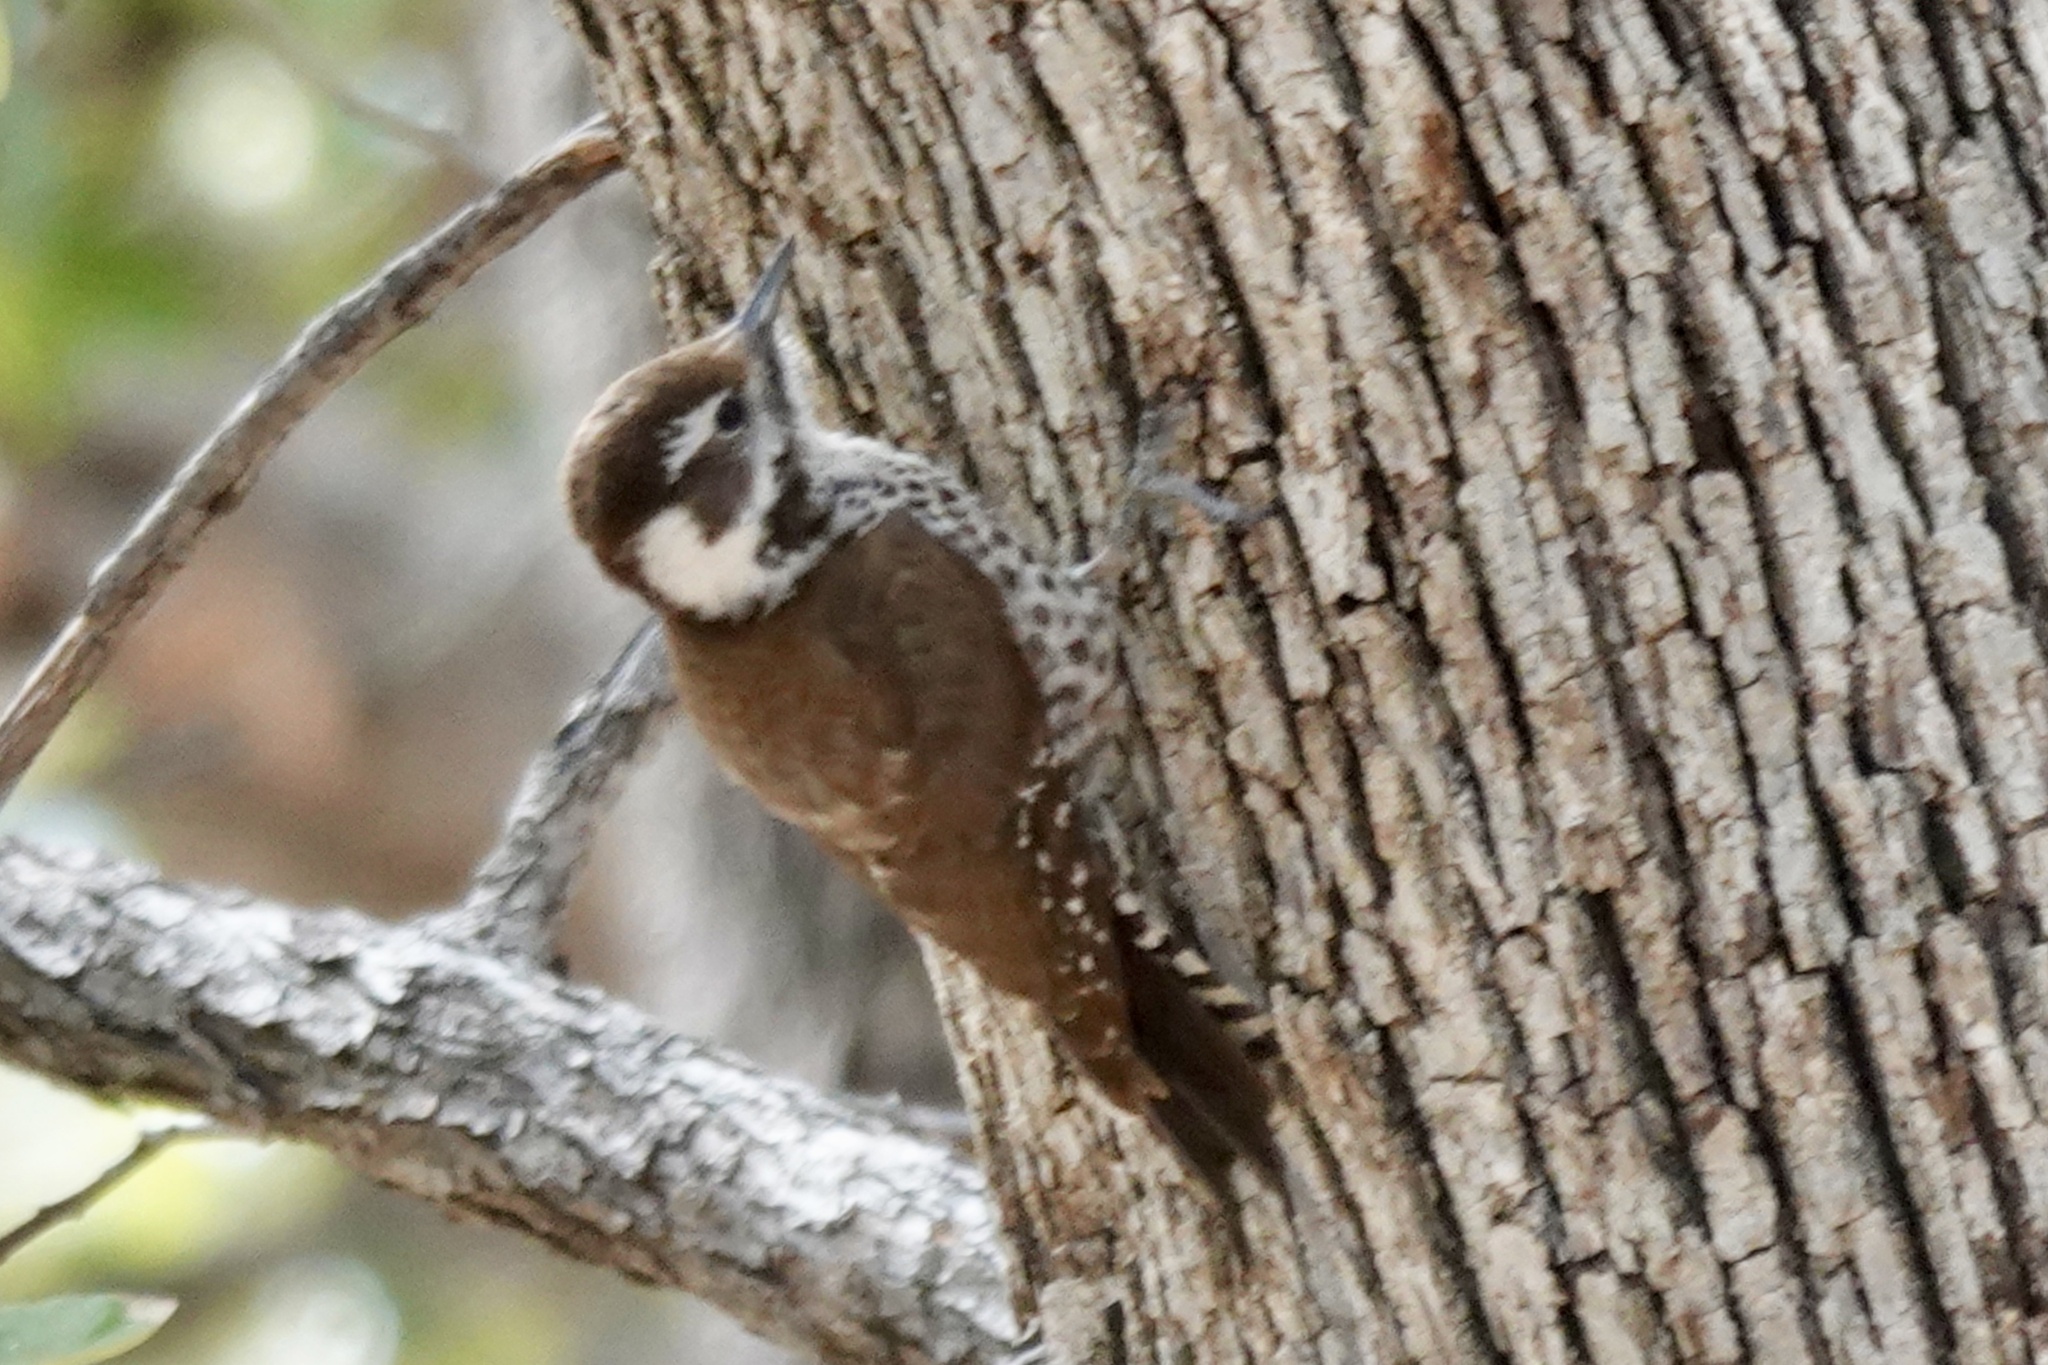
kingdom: Animalia
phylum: Chordata
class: Aves
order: Piciformes
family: Picidae
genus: Leuconotopicus
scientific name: Leuconotopicus arizonae
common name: Arizona woodpecker
